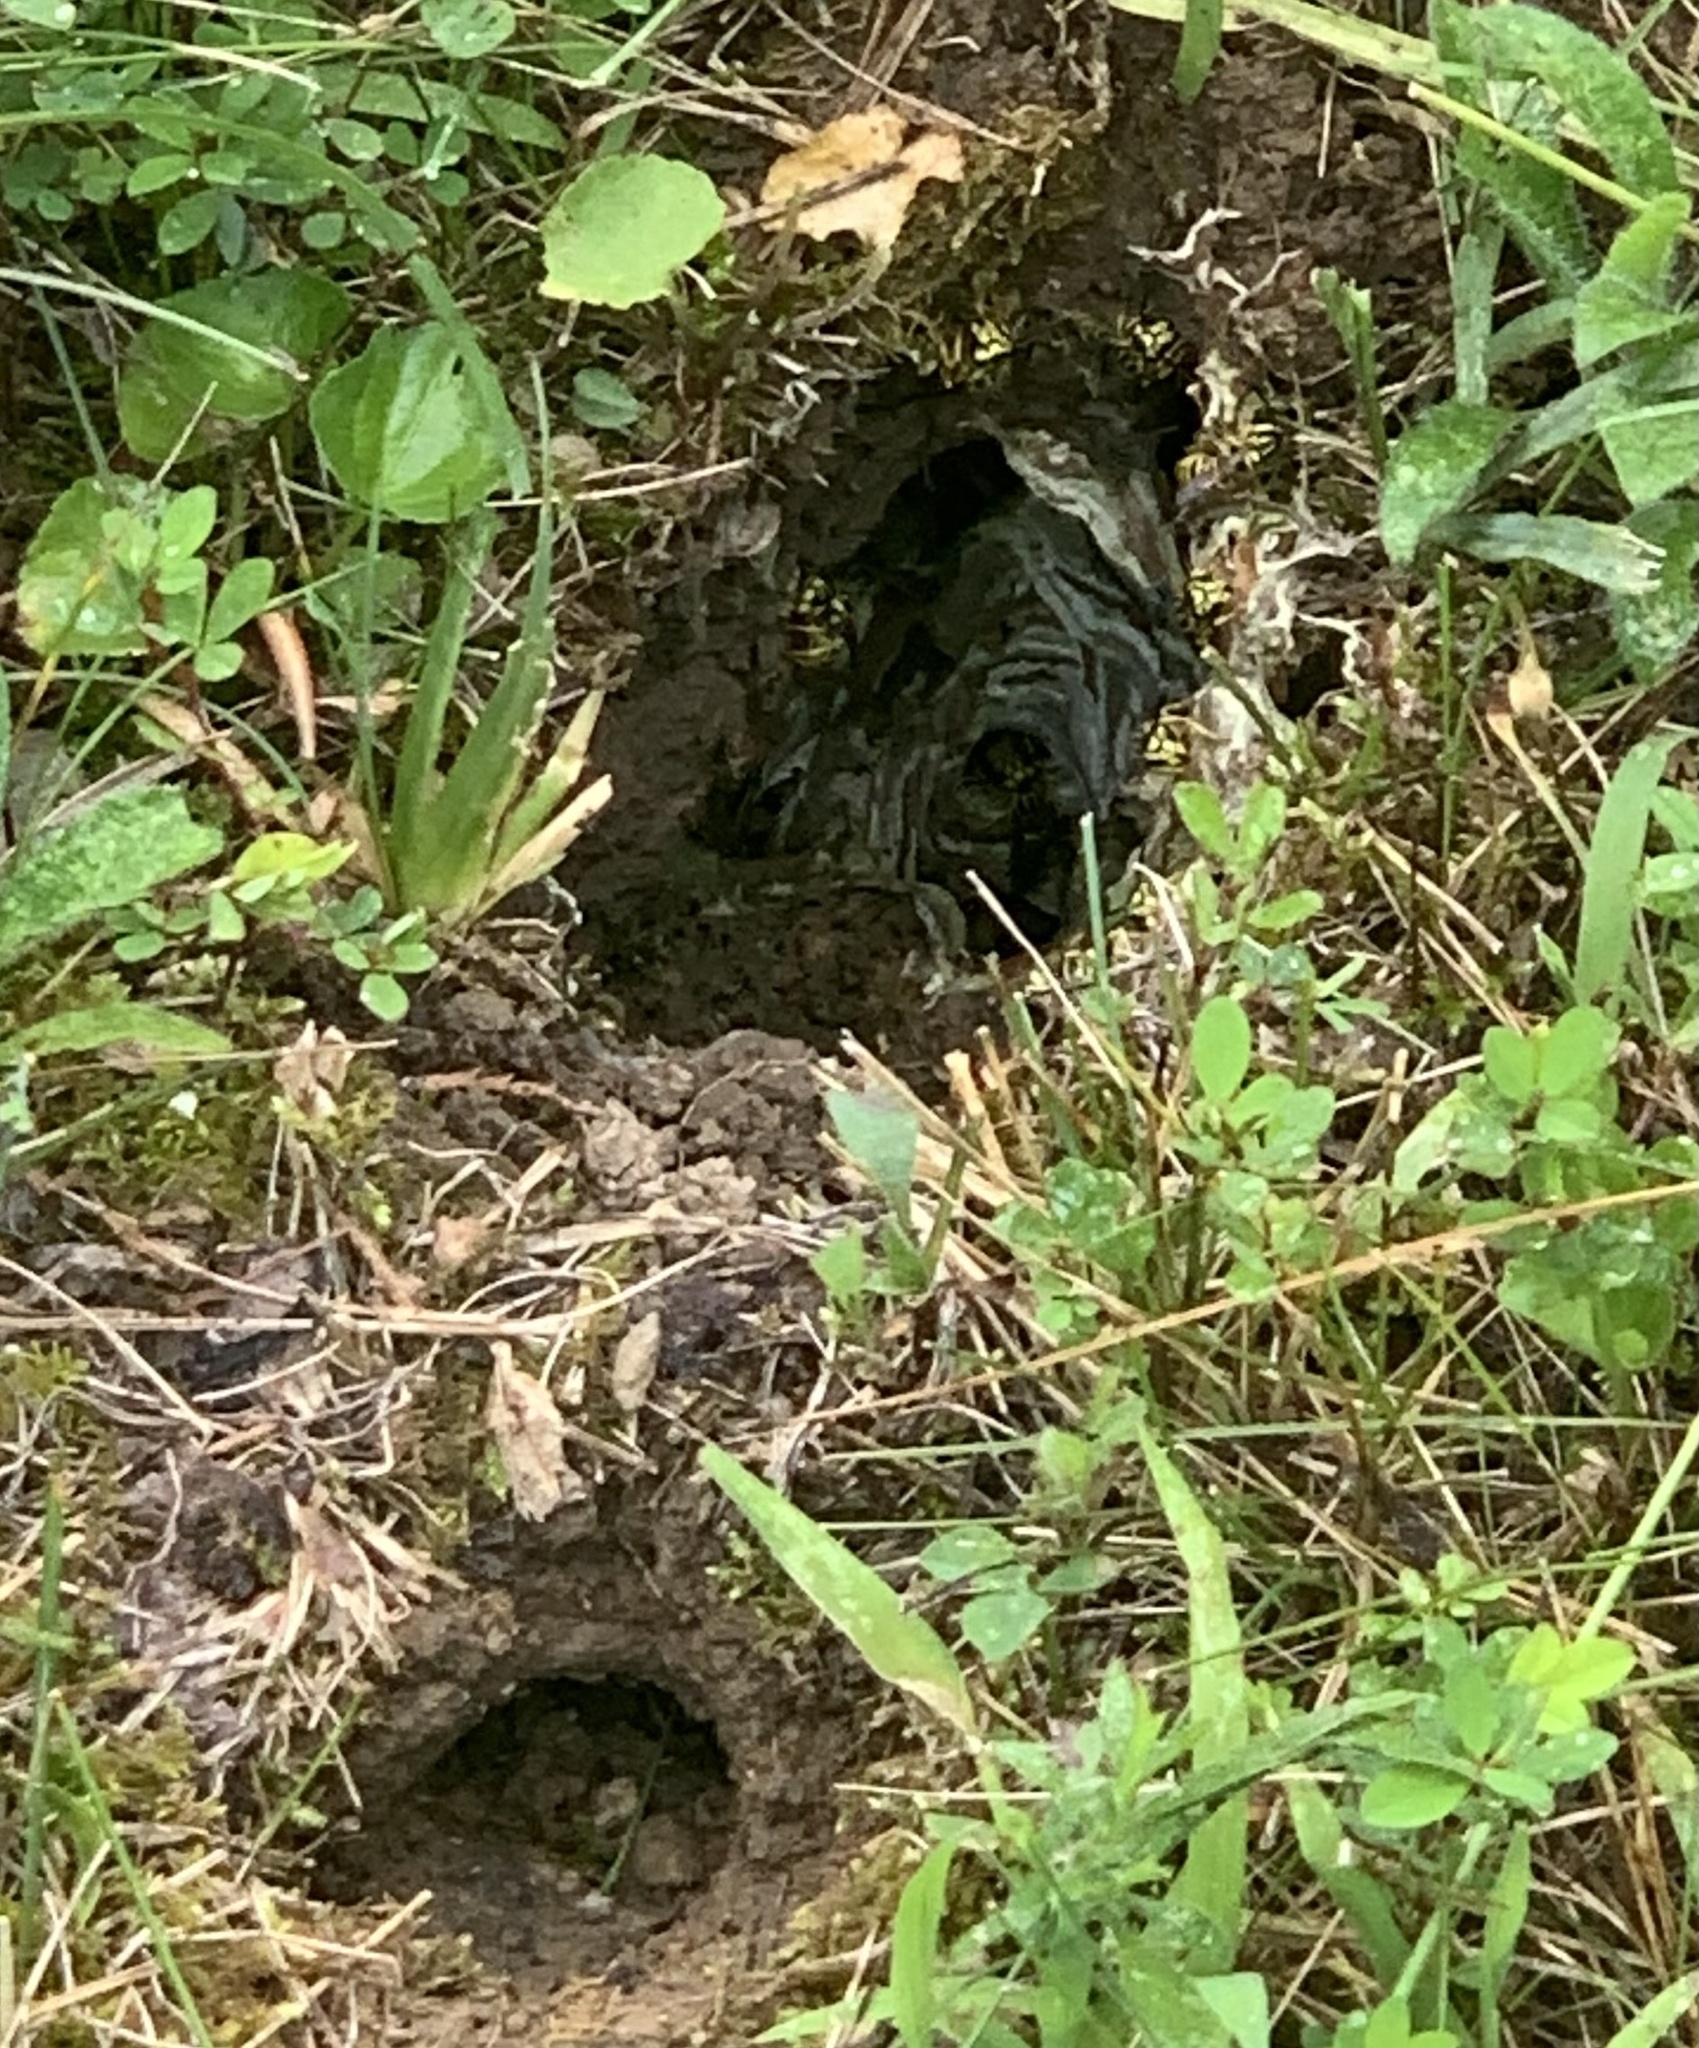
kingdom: Animalia
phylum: Arthropoda
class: Insecta
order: Hymenoptera
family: Vespidae
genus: Vespula
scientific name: Vespula squamosa
